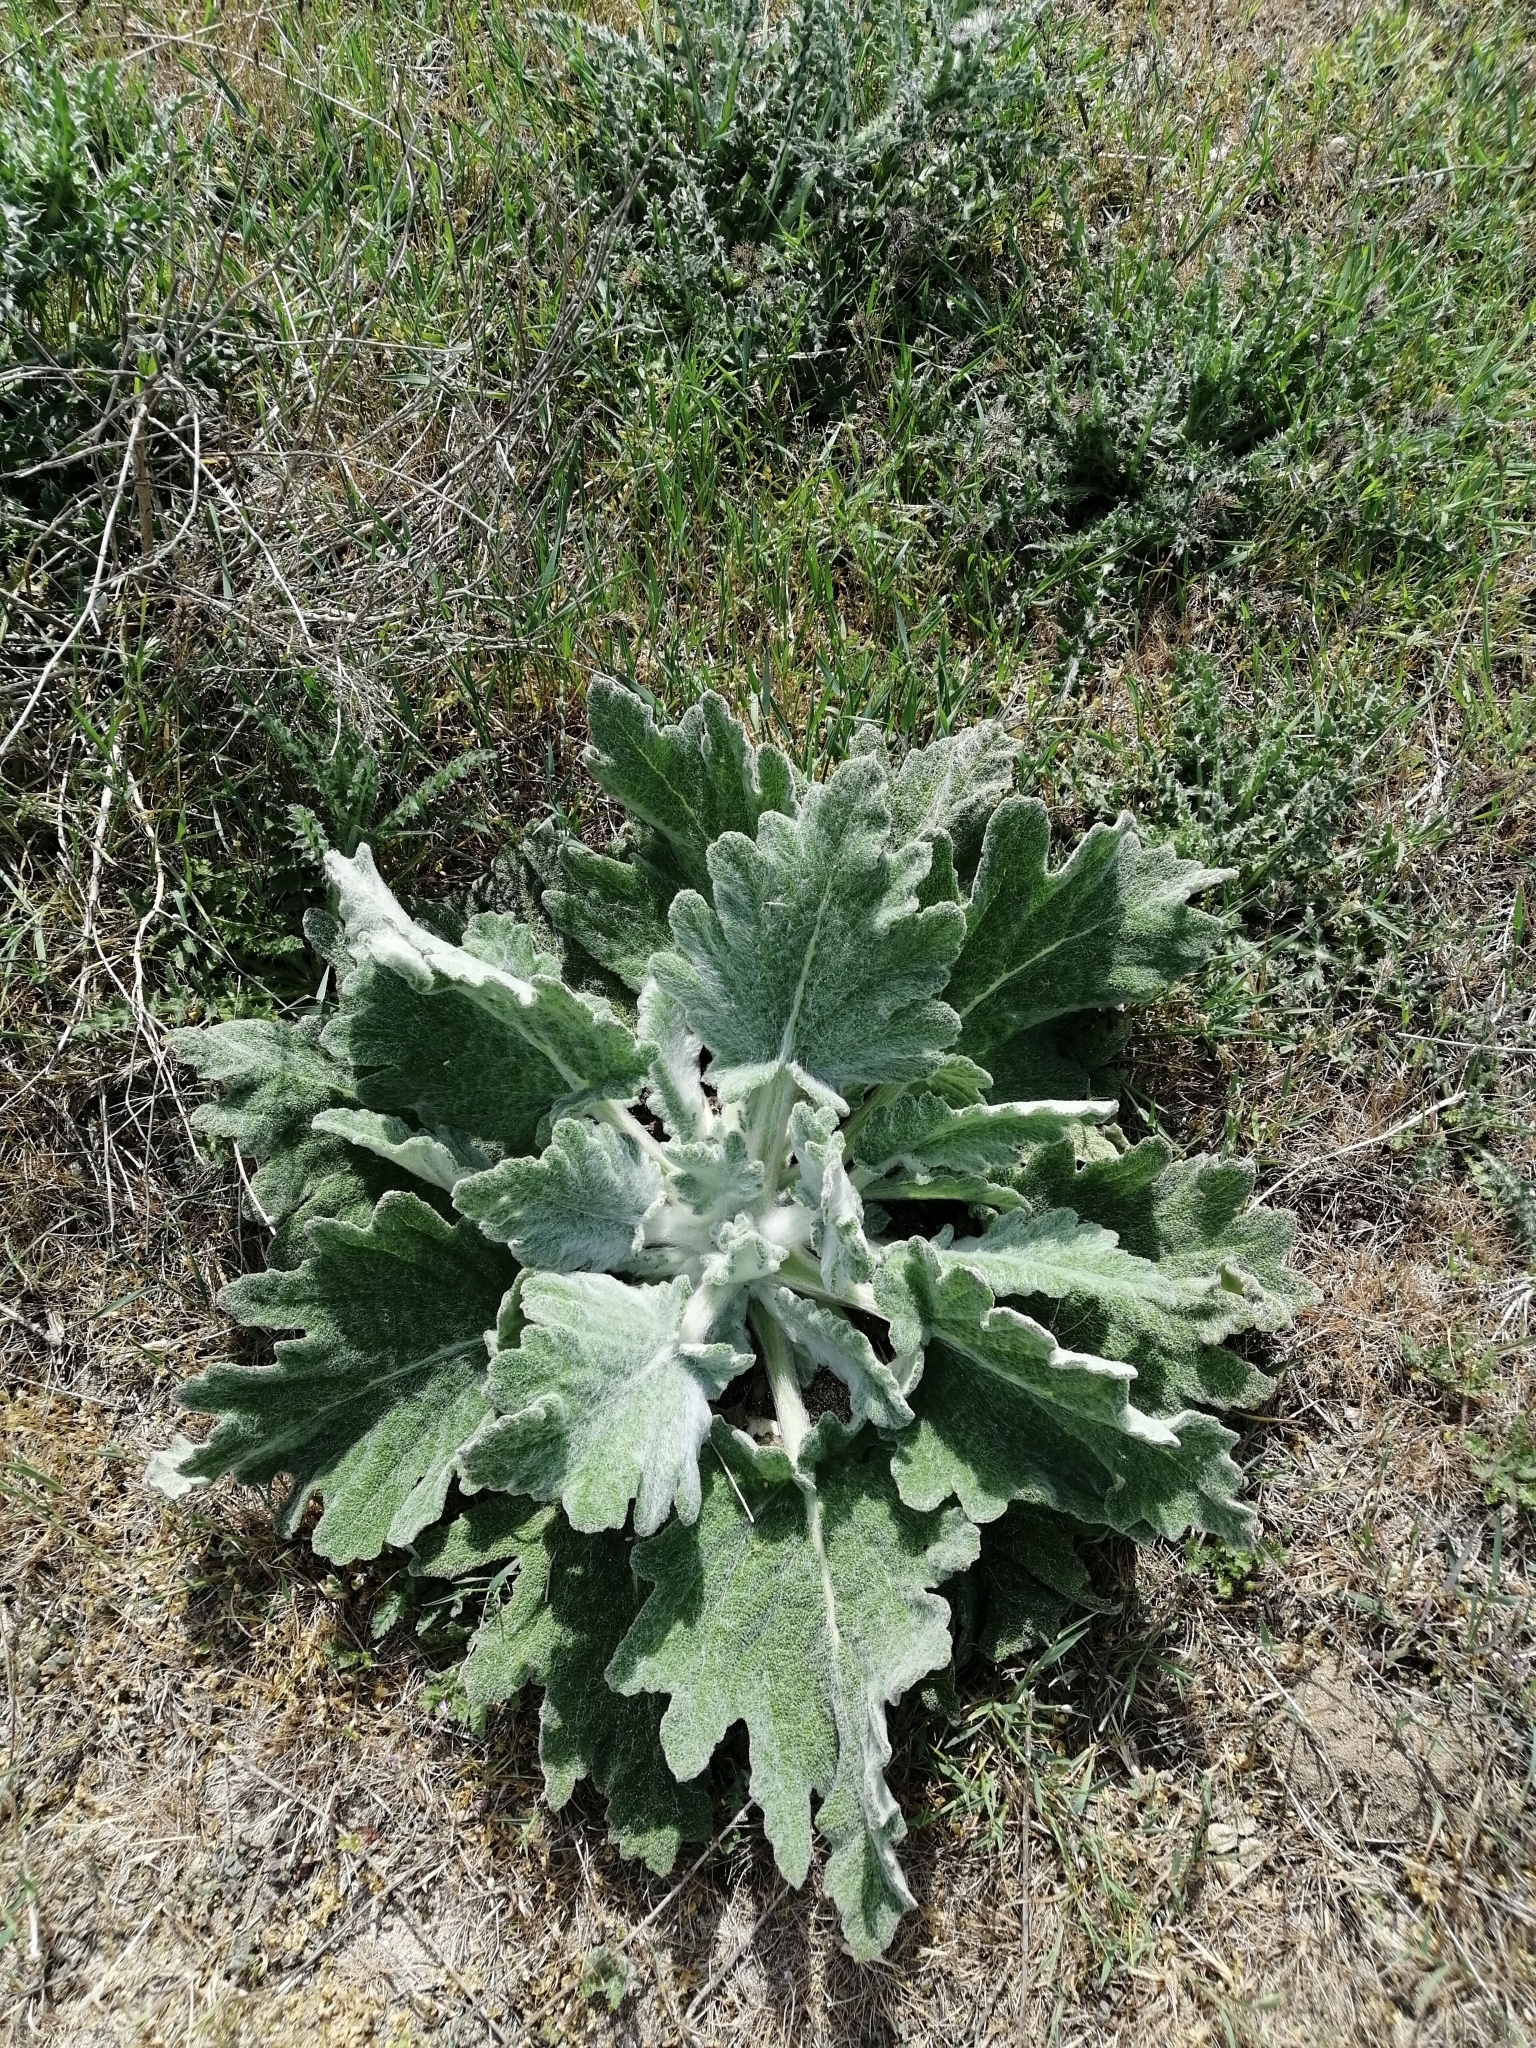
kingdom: Plantae
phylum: Tracheophyta
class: Magnoliopsida
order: Lamiales
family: Lamiaceae
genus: Salvia
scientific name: Salvia aethiopis
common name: Mediterranean sage
